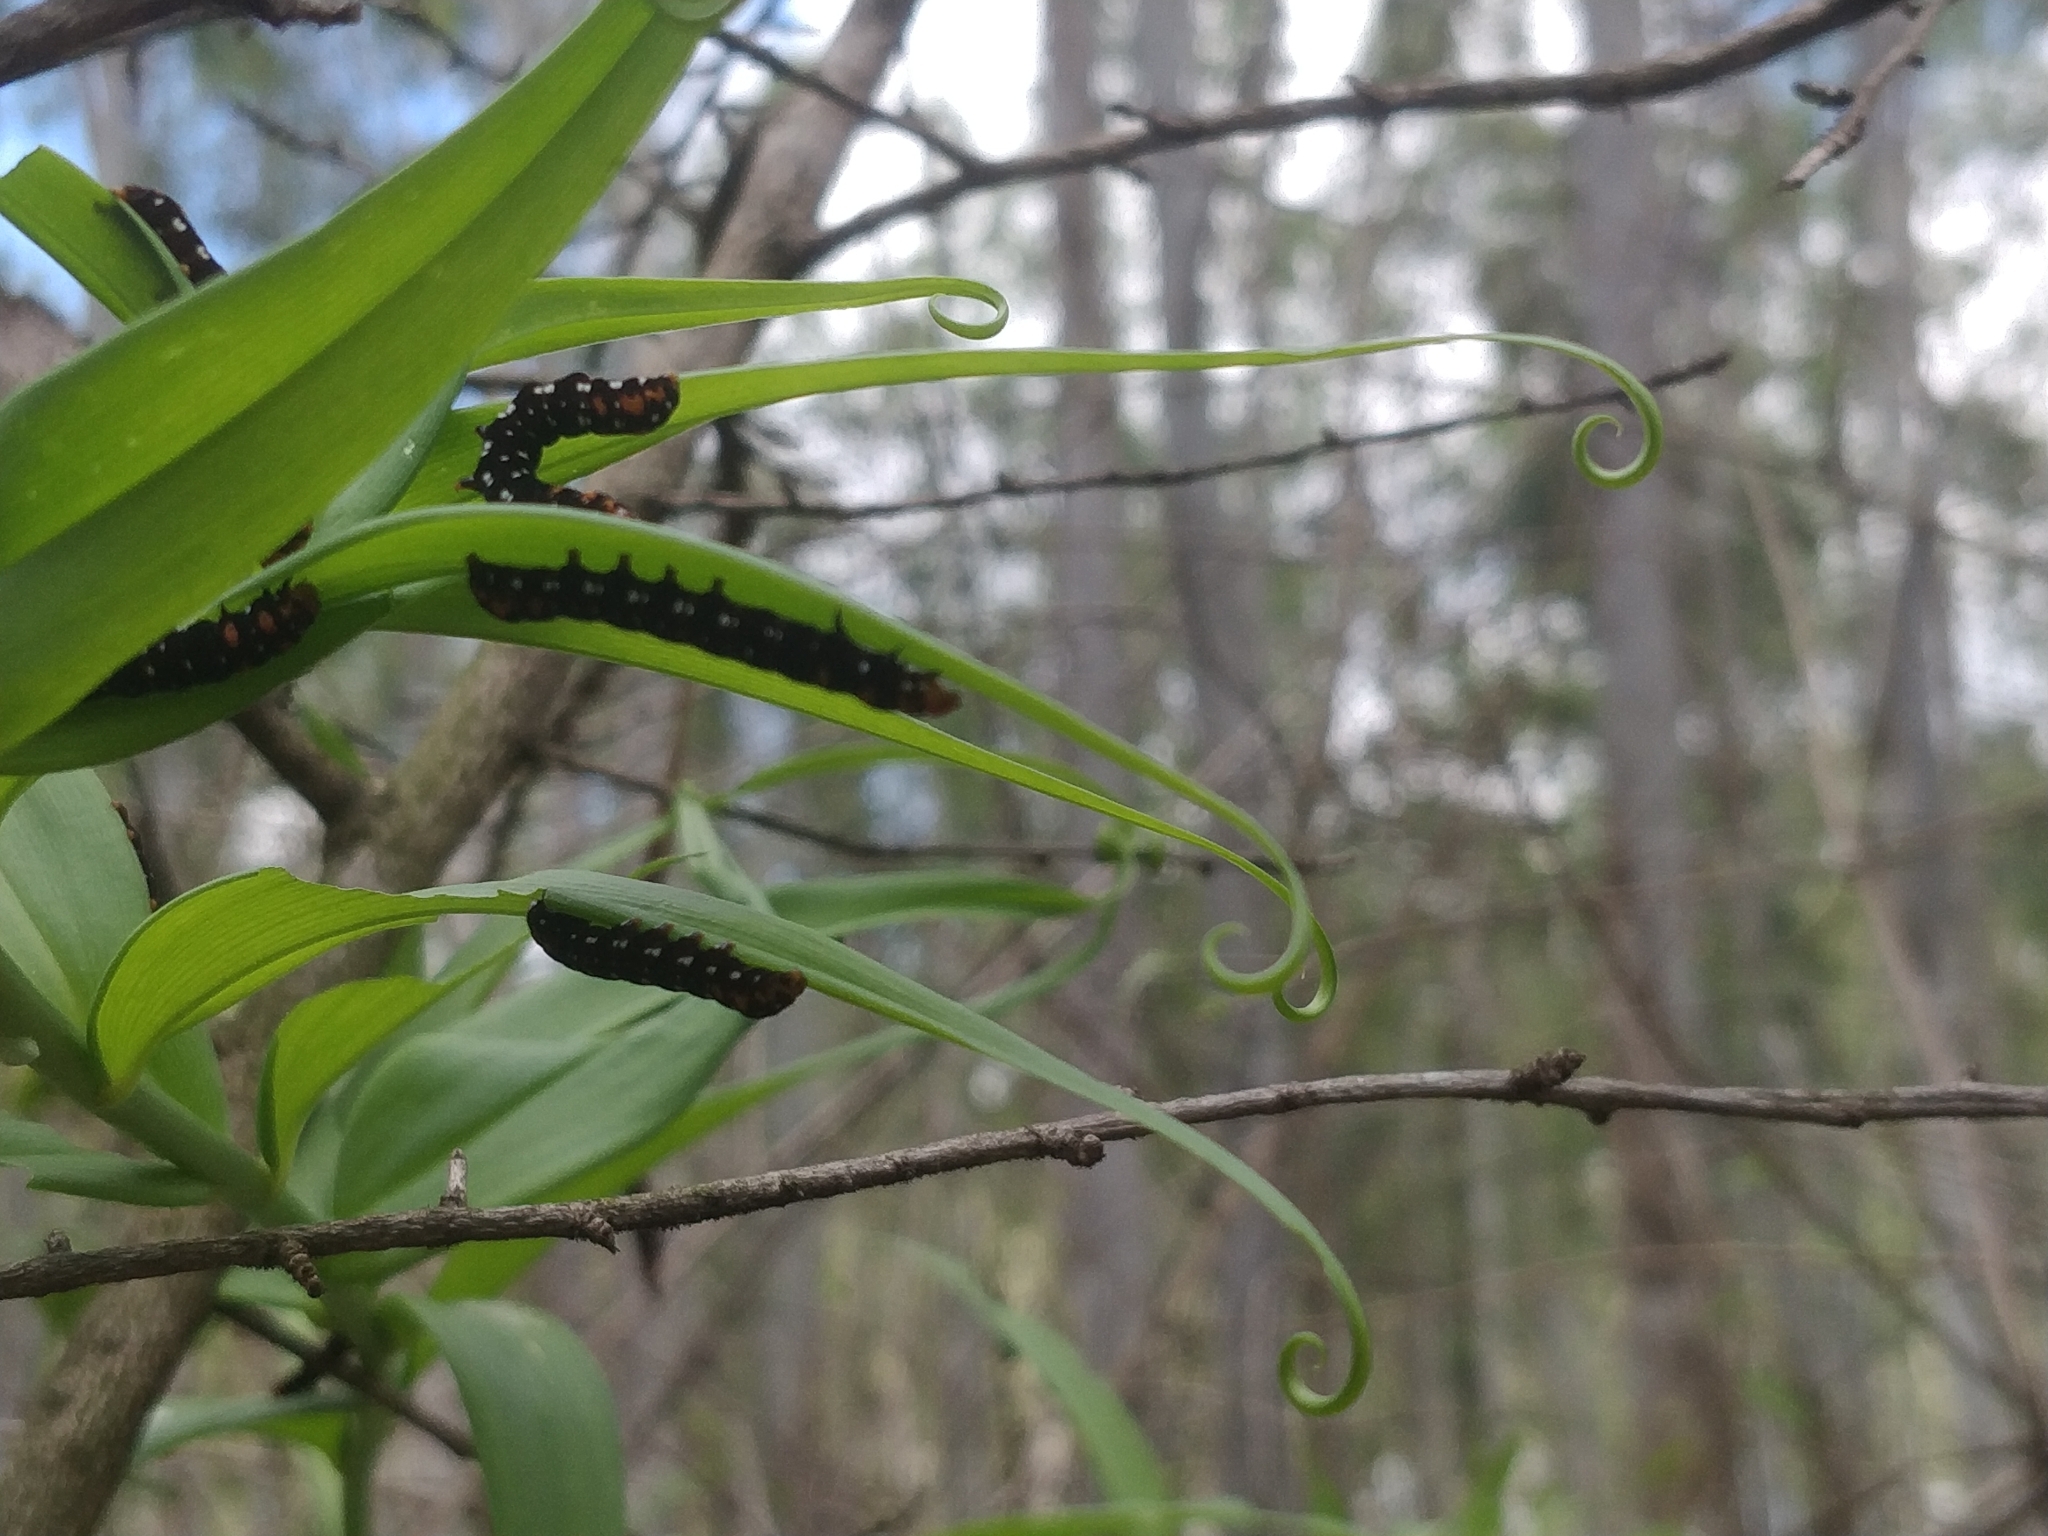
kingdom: Animalia
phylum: Arthropoda
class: Insecta
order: Lepidoptera
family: Noctuidae
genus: Polytela
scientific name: Polytela gloriosae
